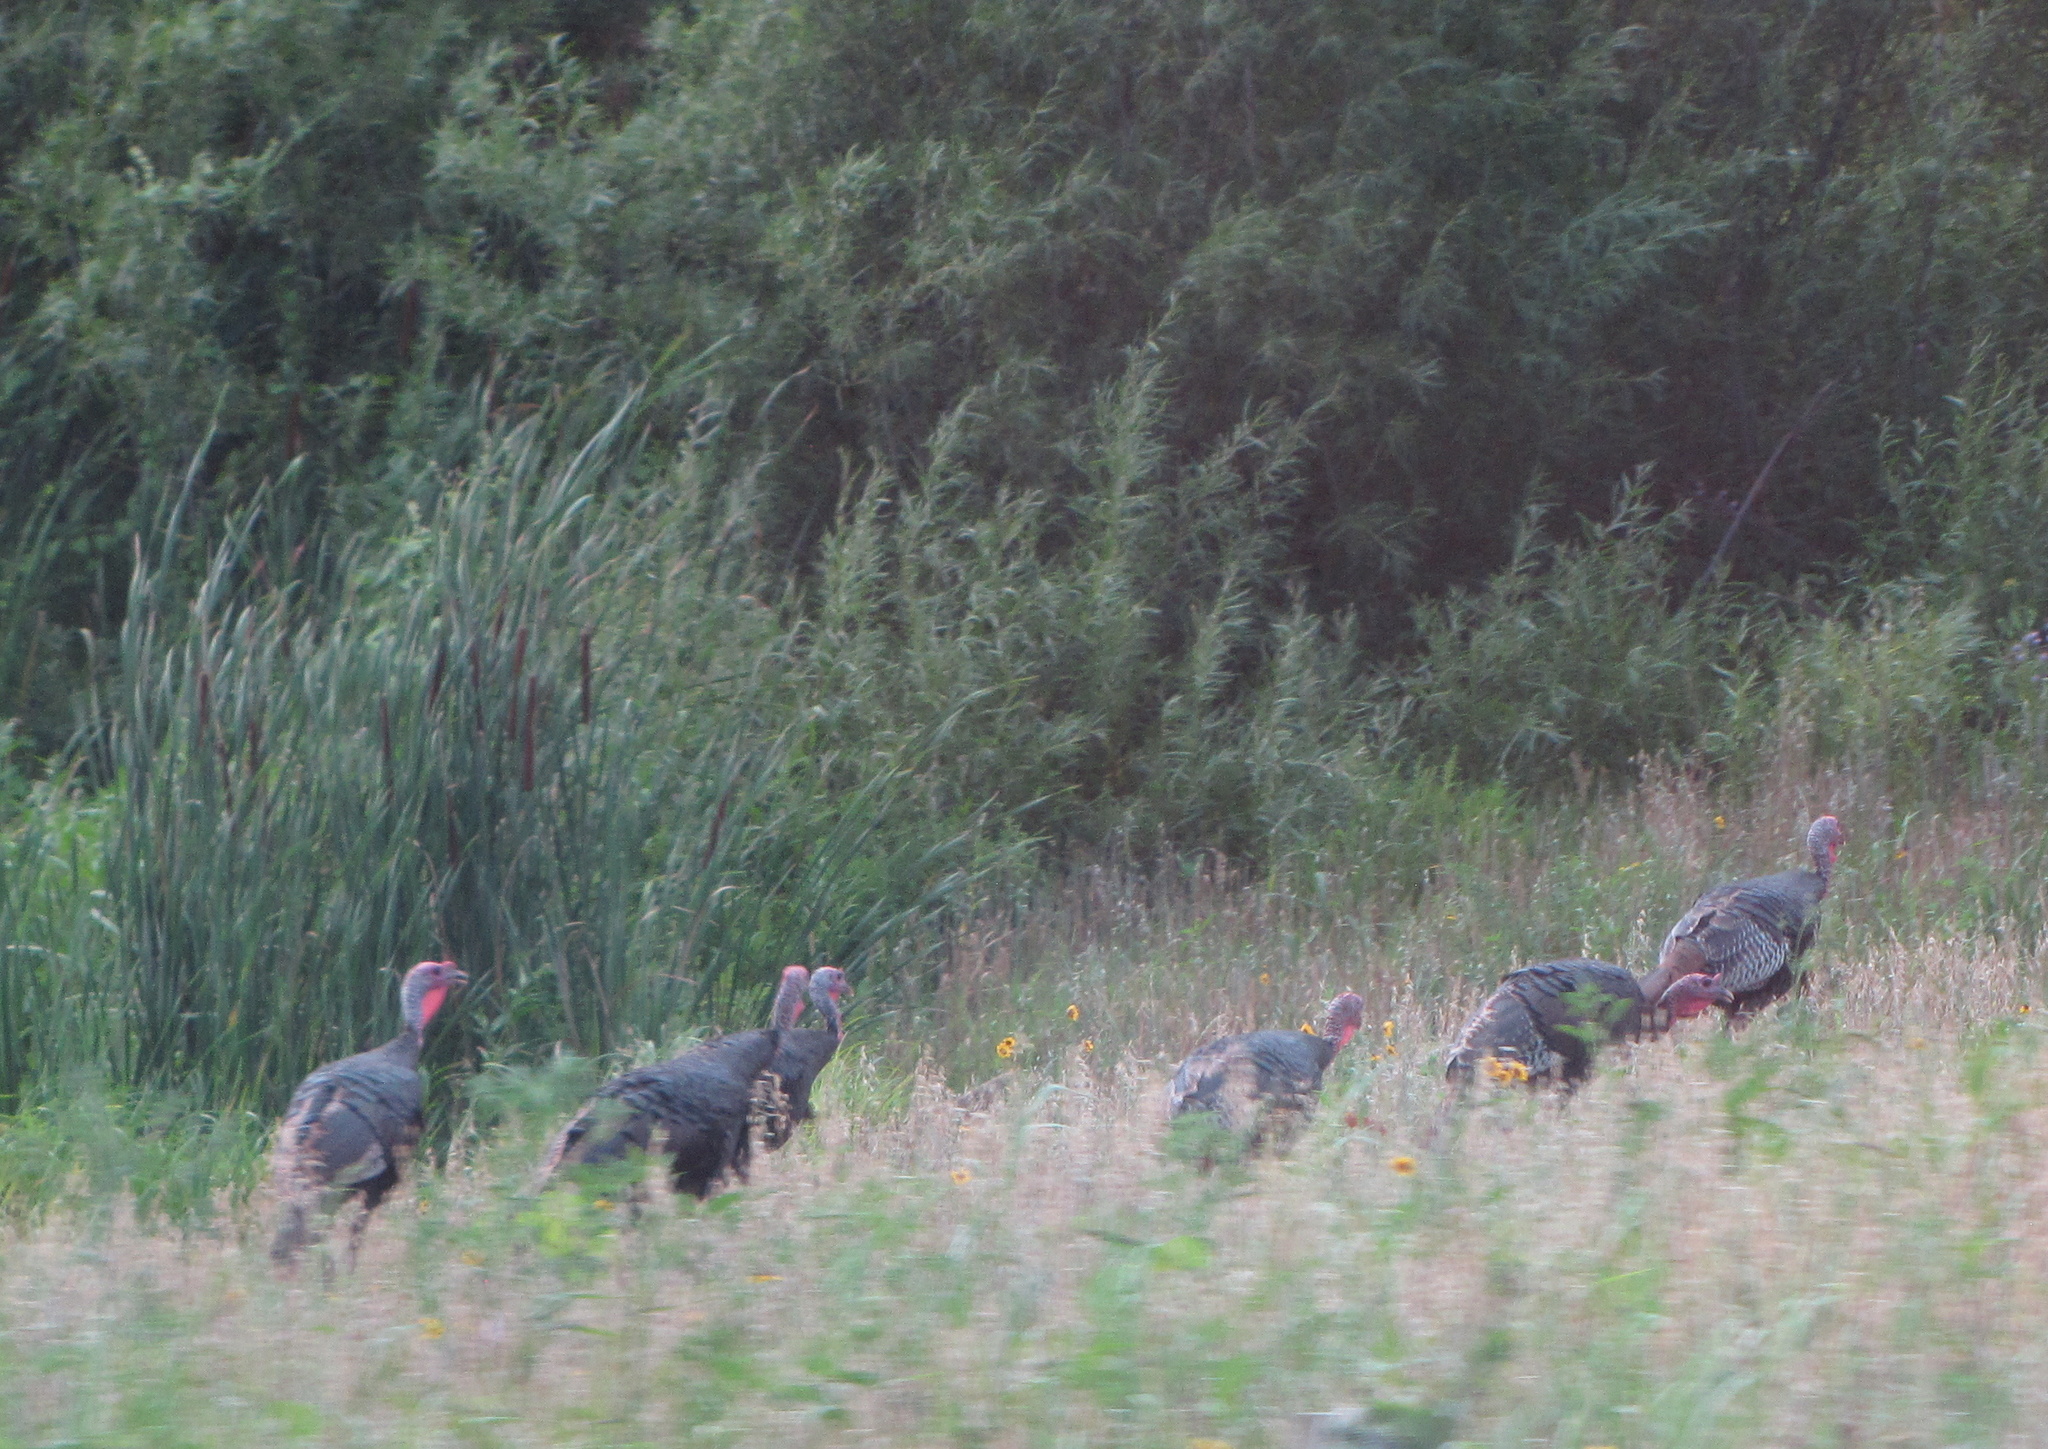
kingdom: Animalia
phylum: Chordata
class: Aves
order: Galliformes
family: Phasianidae
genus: Meleagris
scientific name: Meleagris gallopavo
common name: Wild turkey
